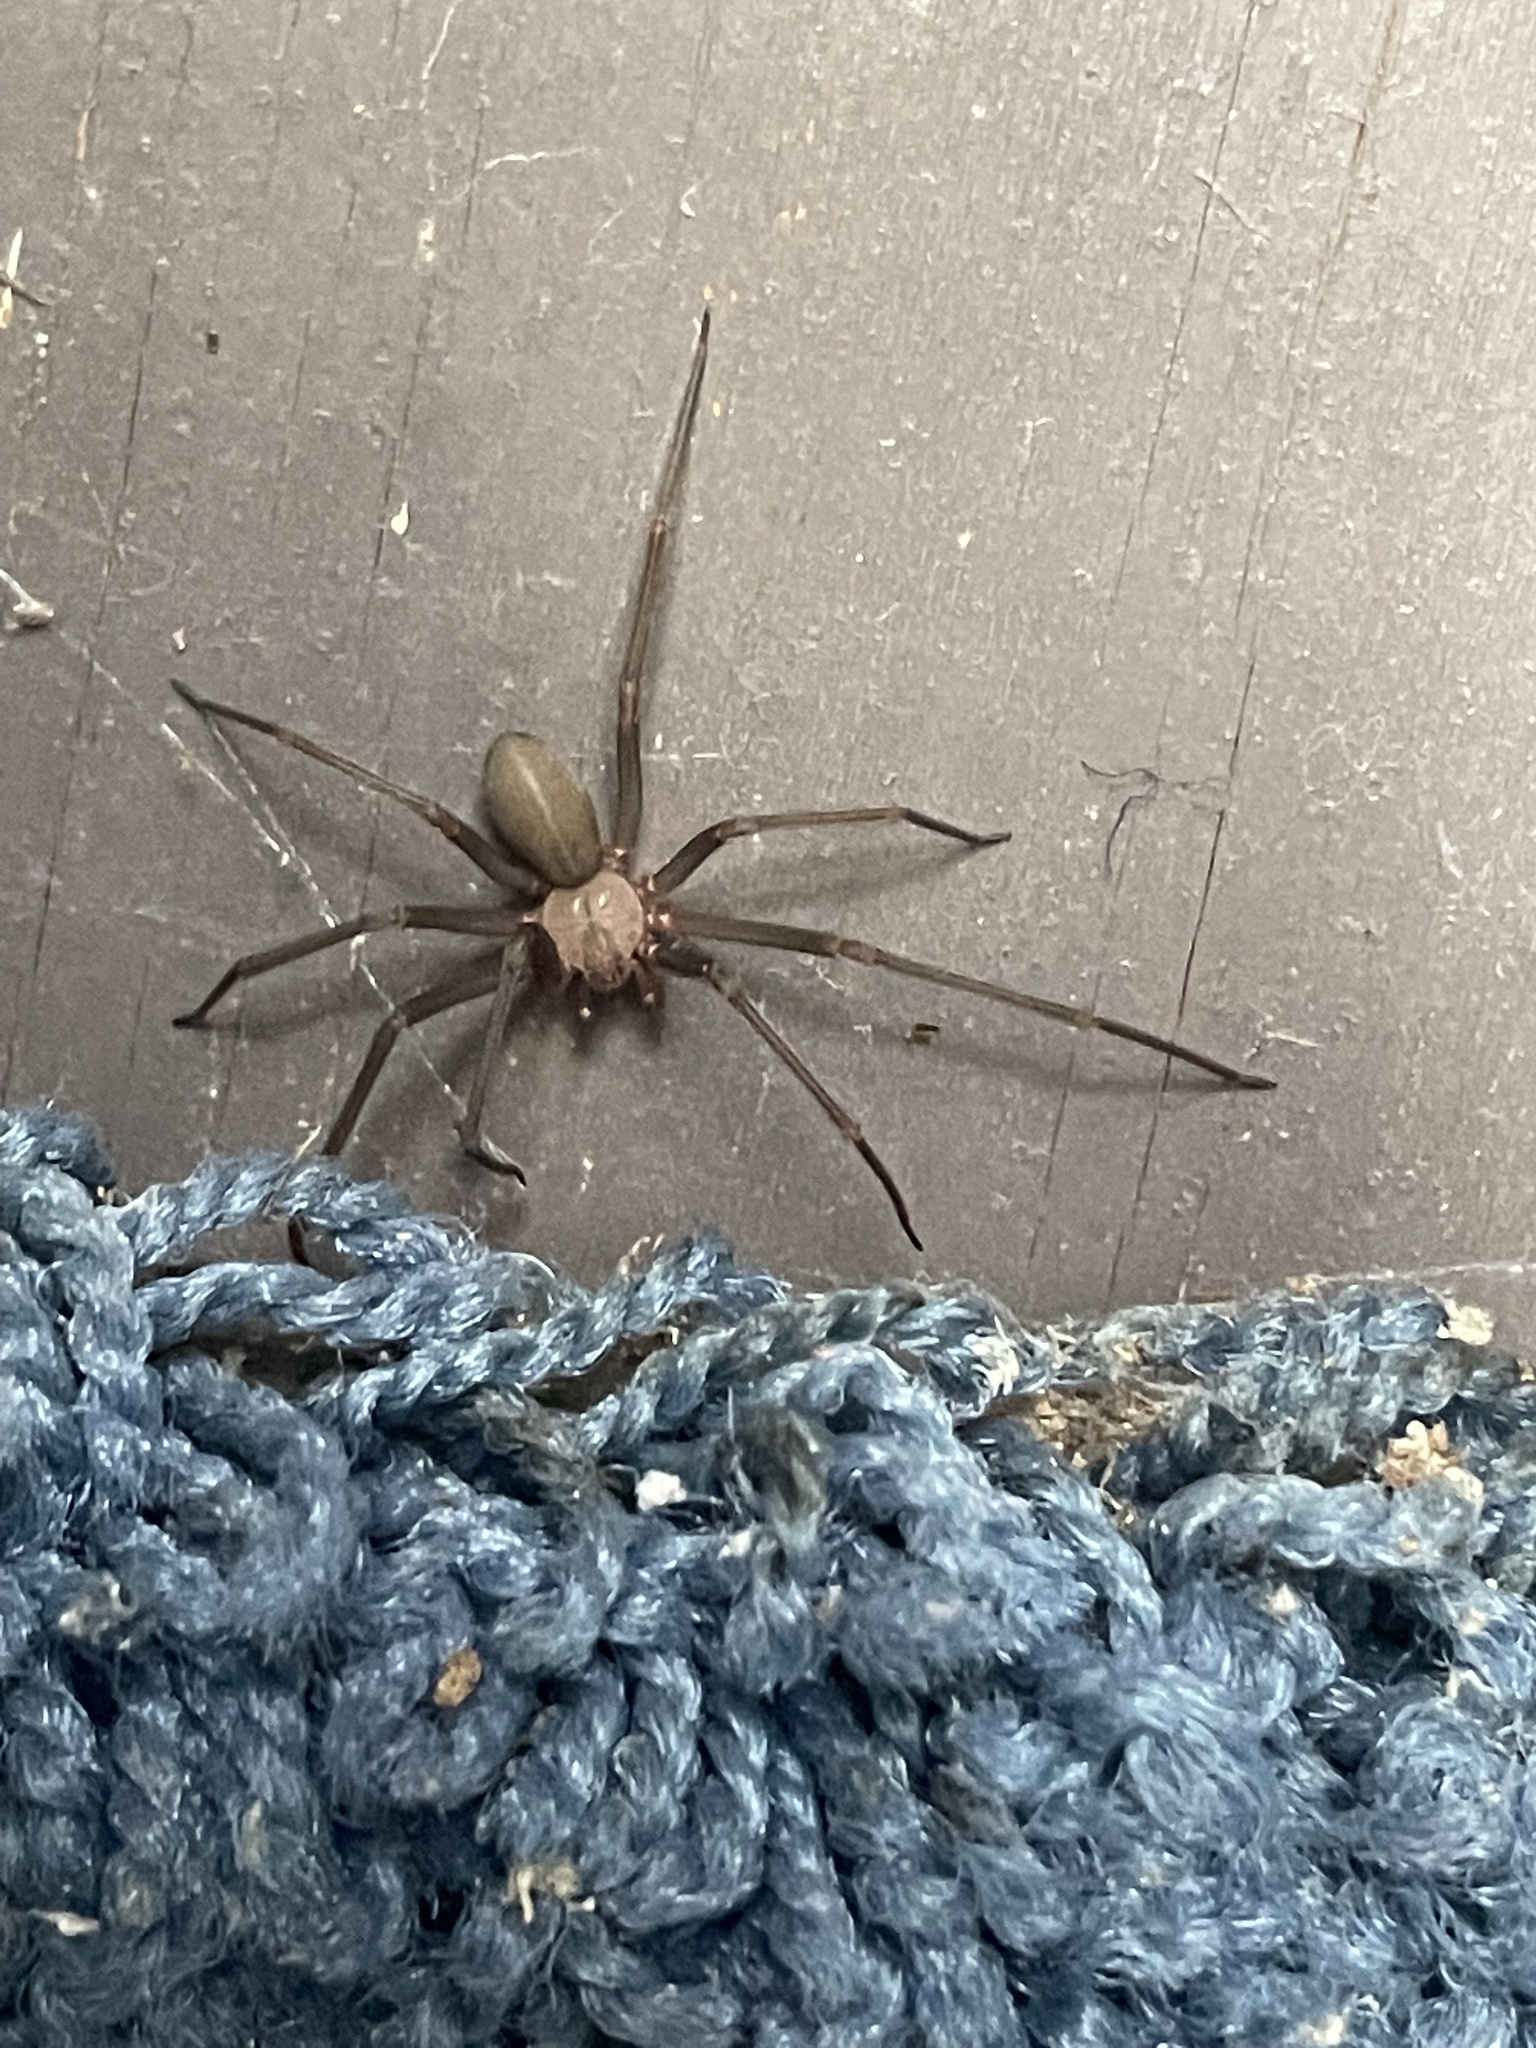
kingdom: Animalia
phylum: Arthropoda
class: Arachnida
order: Araneae
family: Sicariidae
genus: Loxosceles
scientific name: Loxosceles reclusa
